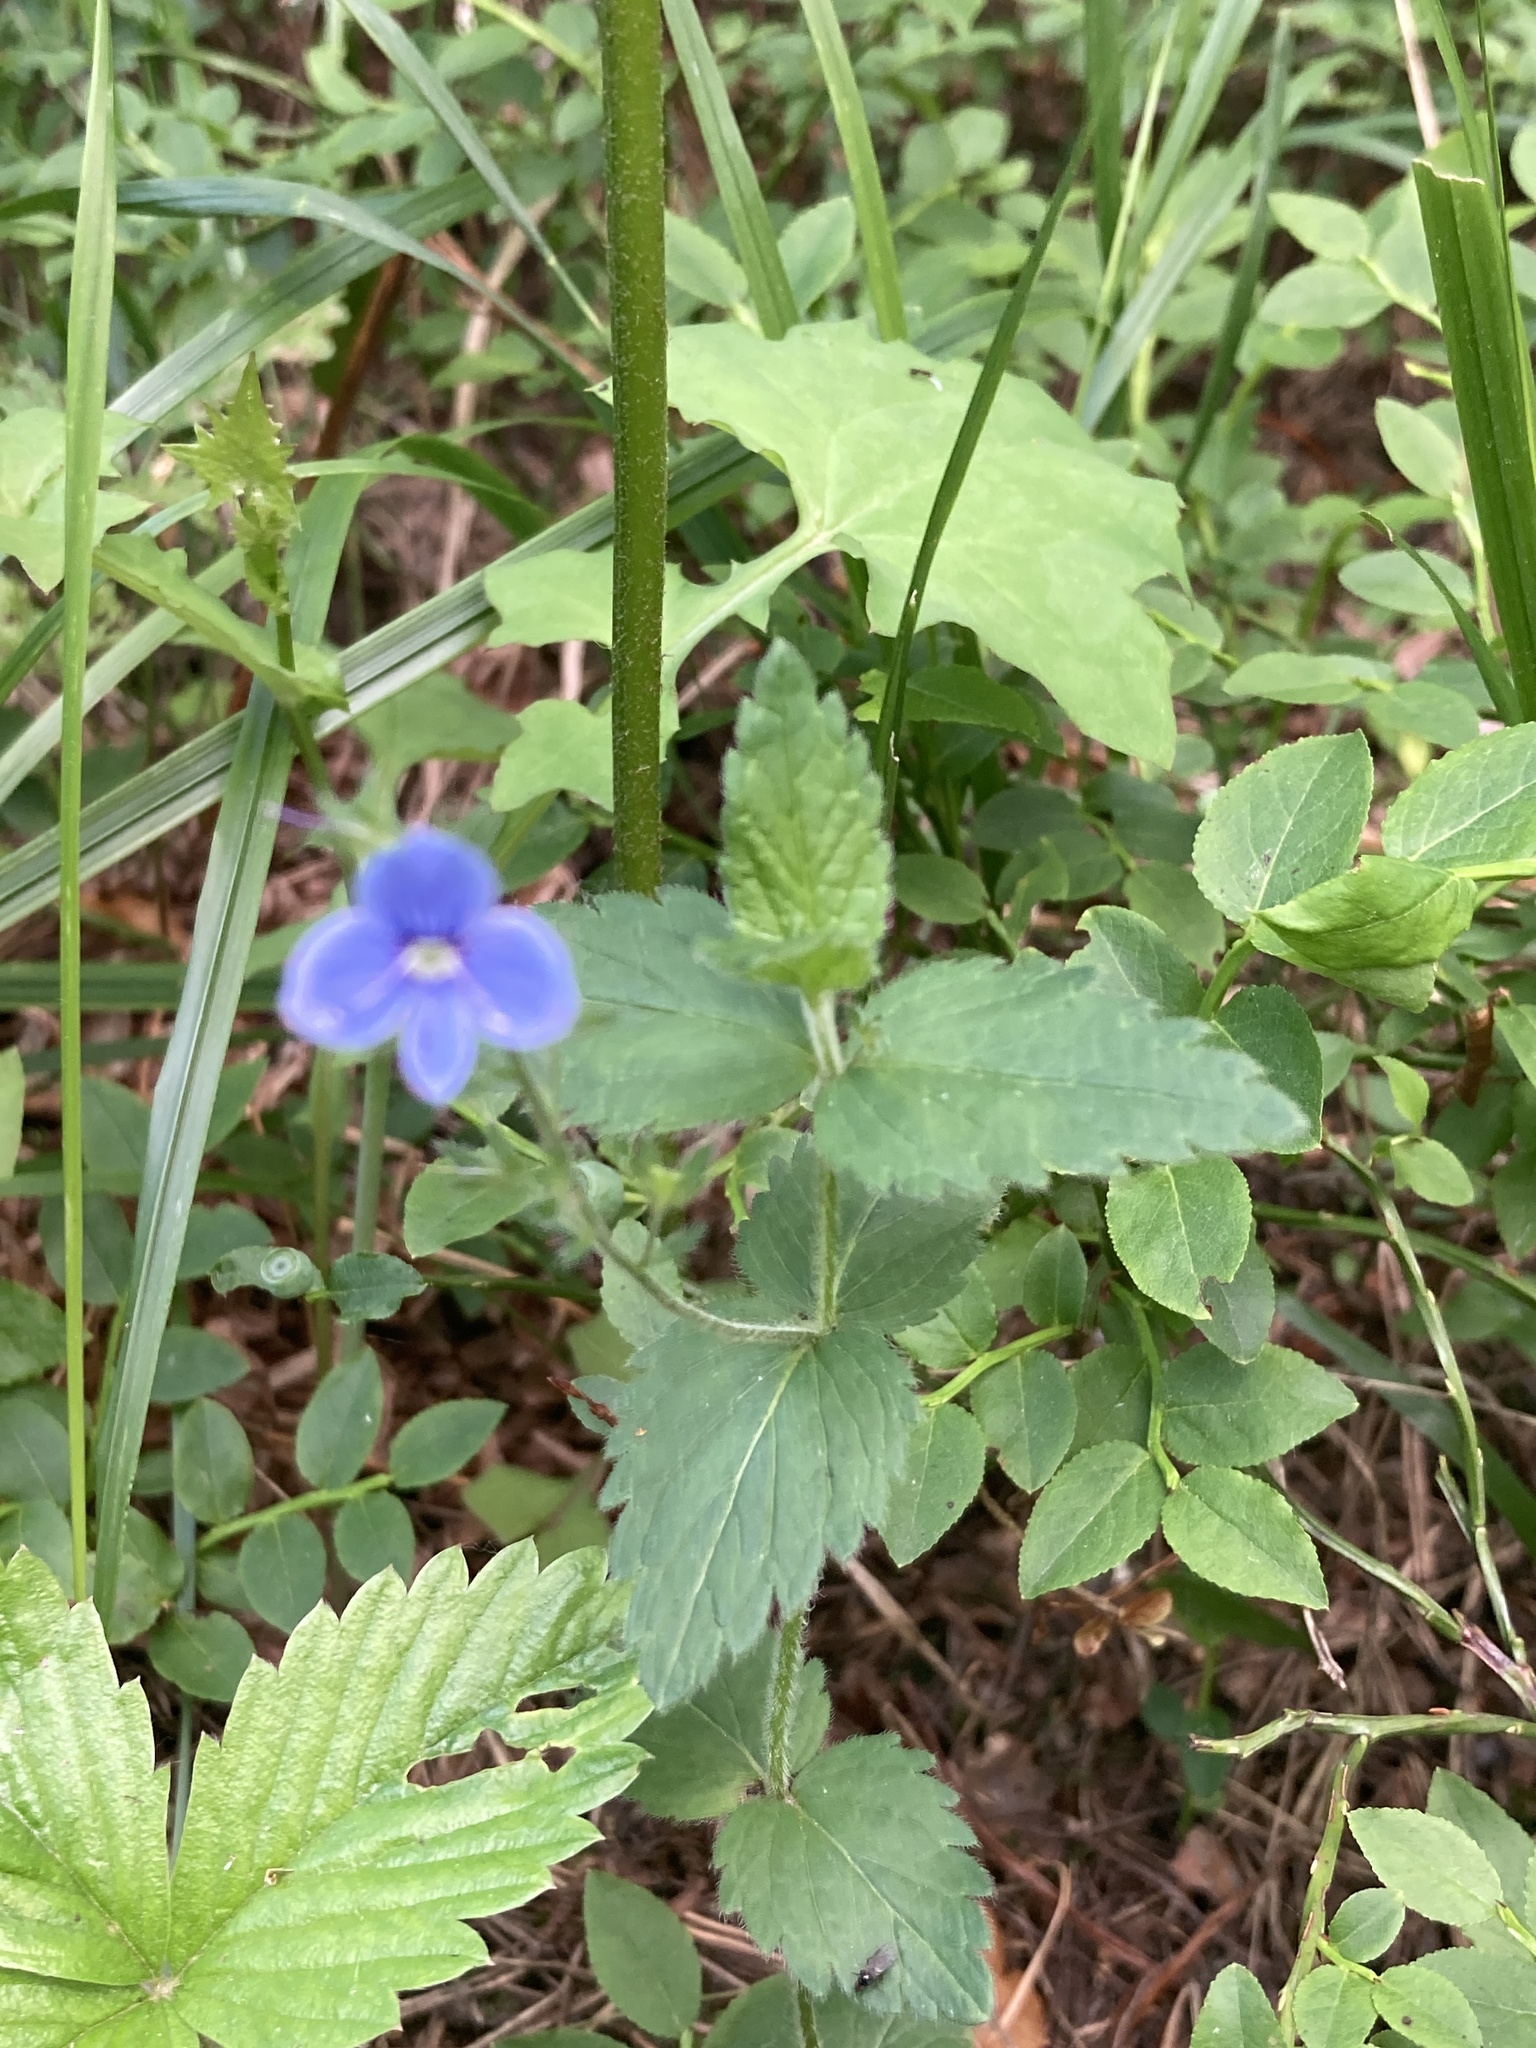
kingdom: Plantae
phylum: Tracheophyta
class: Magnoliopsida
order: Lamiales
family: Plantaginaceae
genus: Veronica
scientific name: Veronica chamaedrys
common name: Germander speedwell
